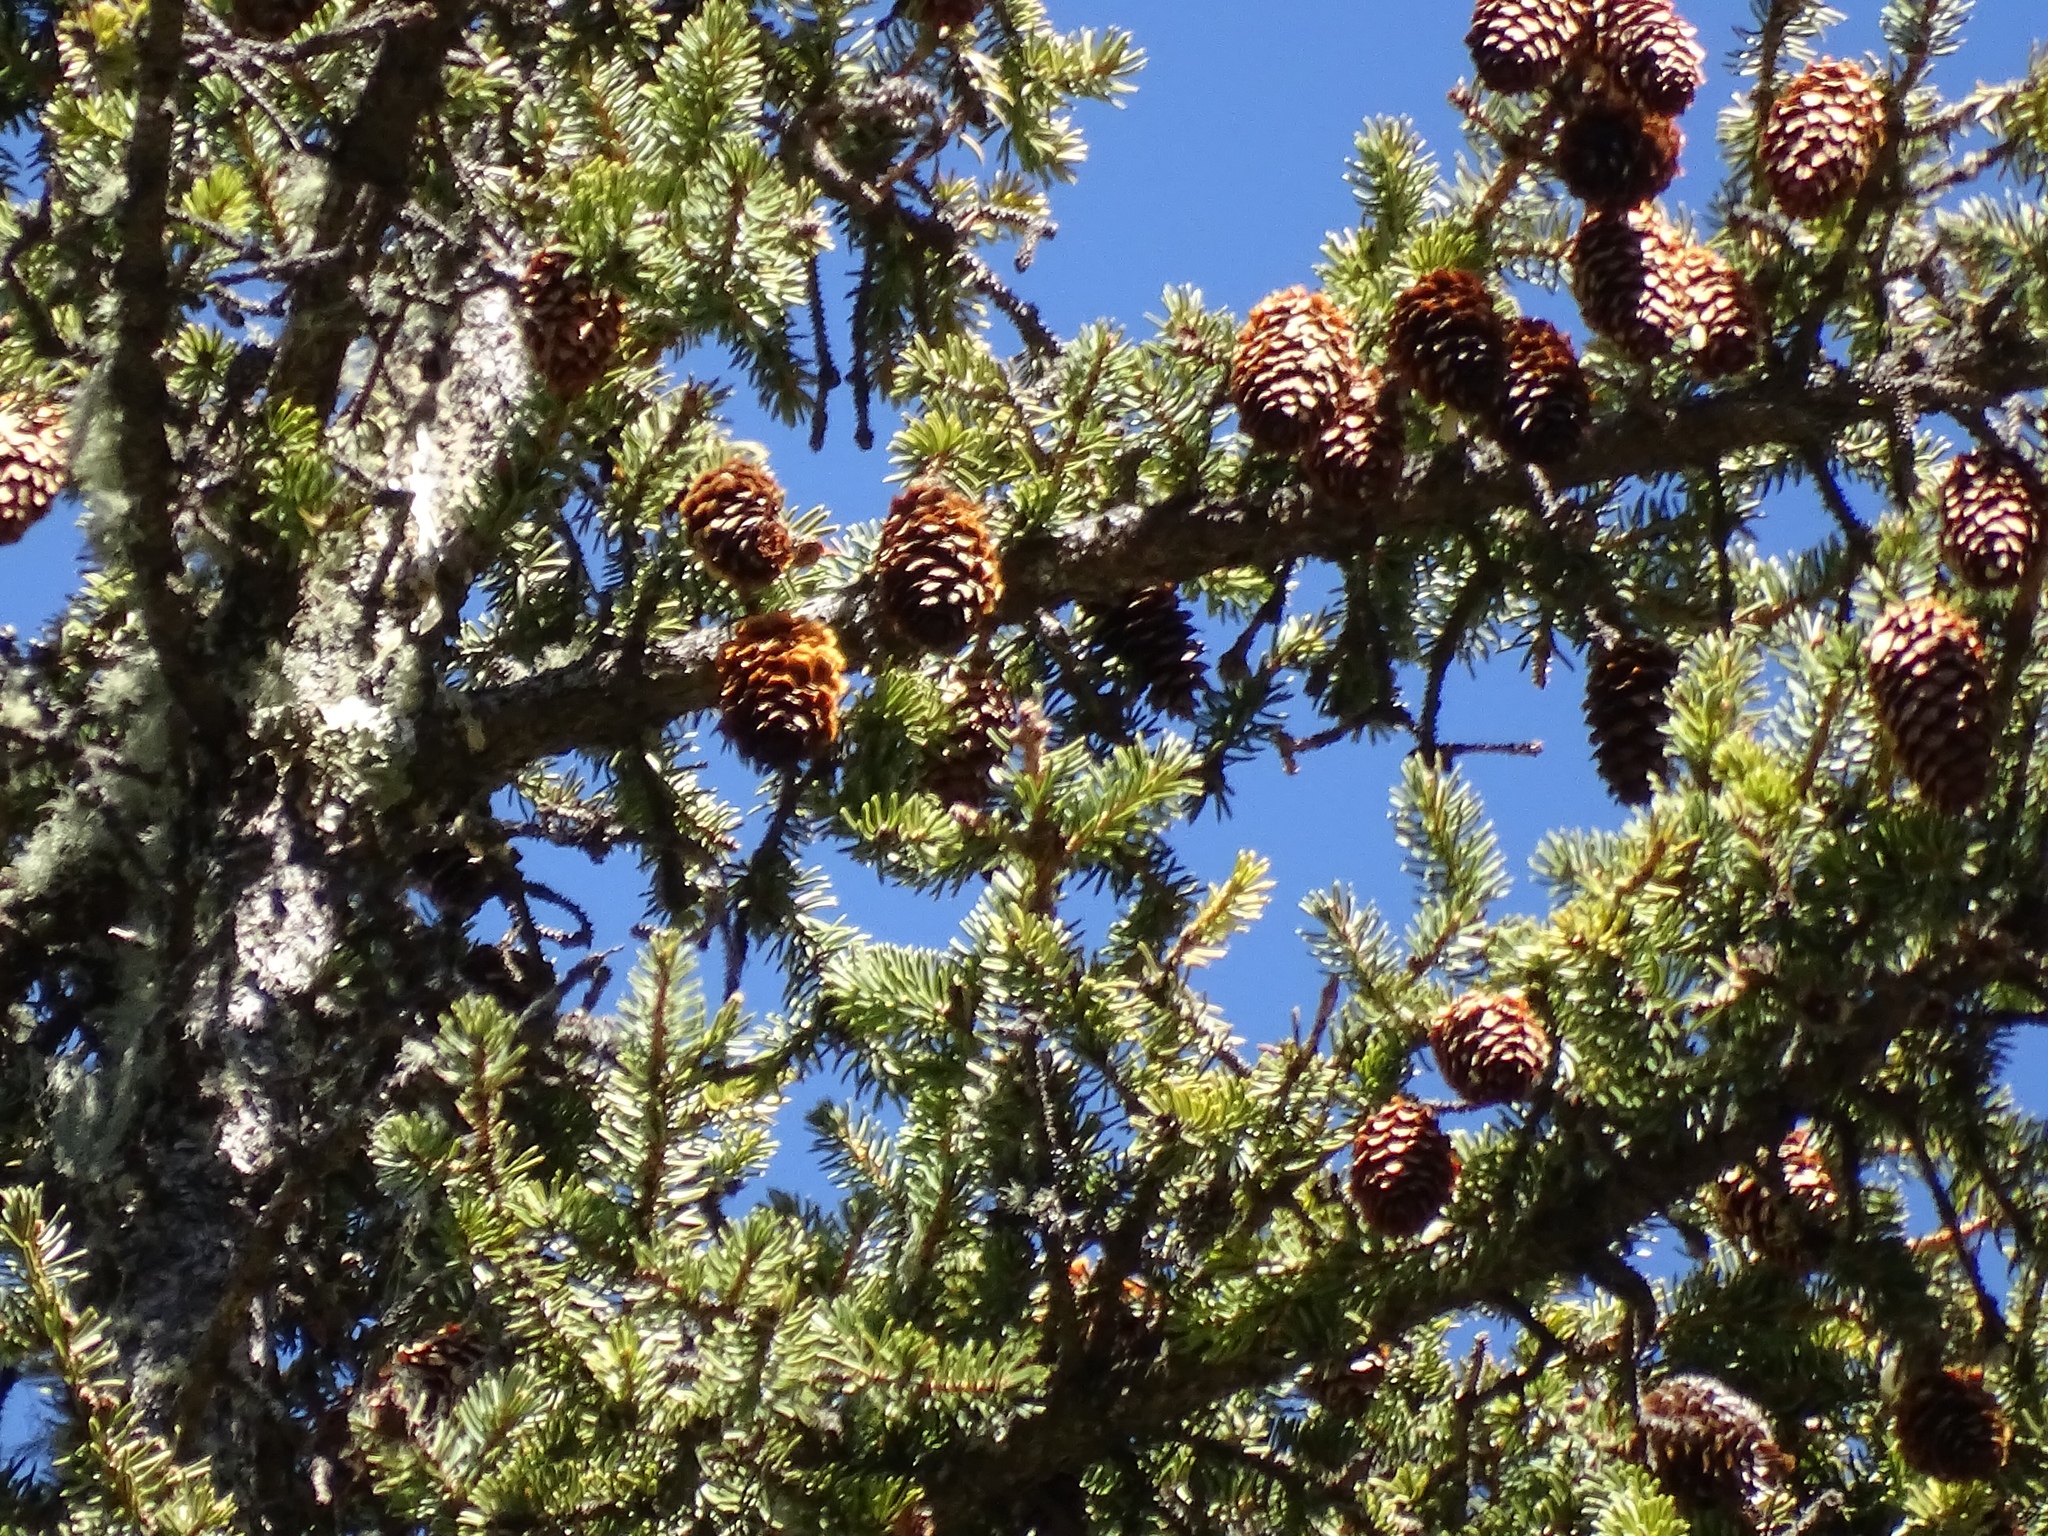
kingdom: Plantae
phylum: Tracheophyta
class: Pinopsida
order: Pinales
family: Pinaceae
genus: Picea
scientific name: Picea engelmannii
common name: Engelmann spruce
